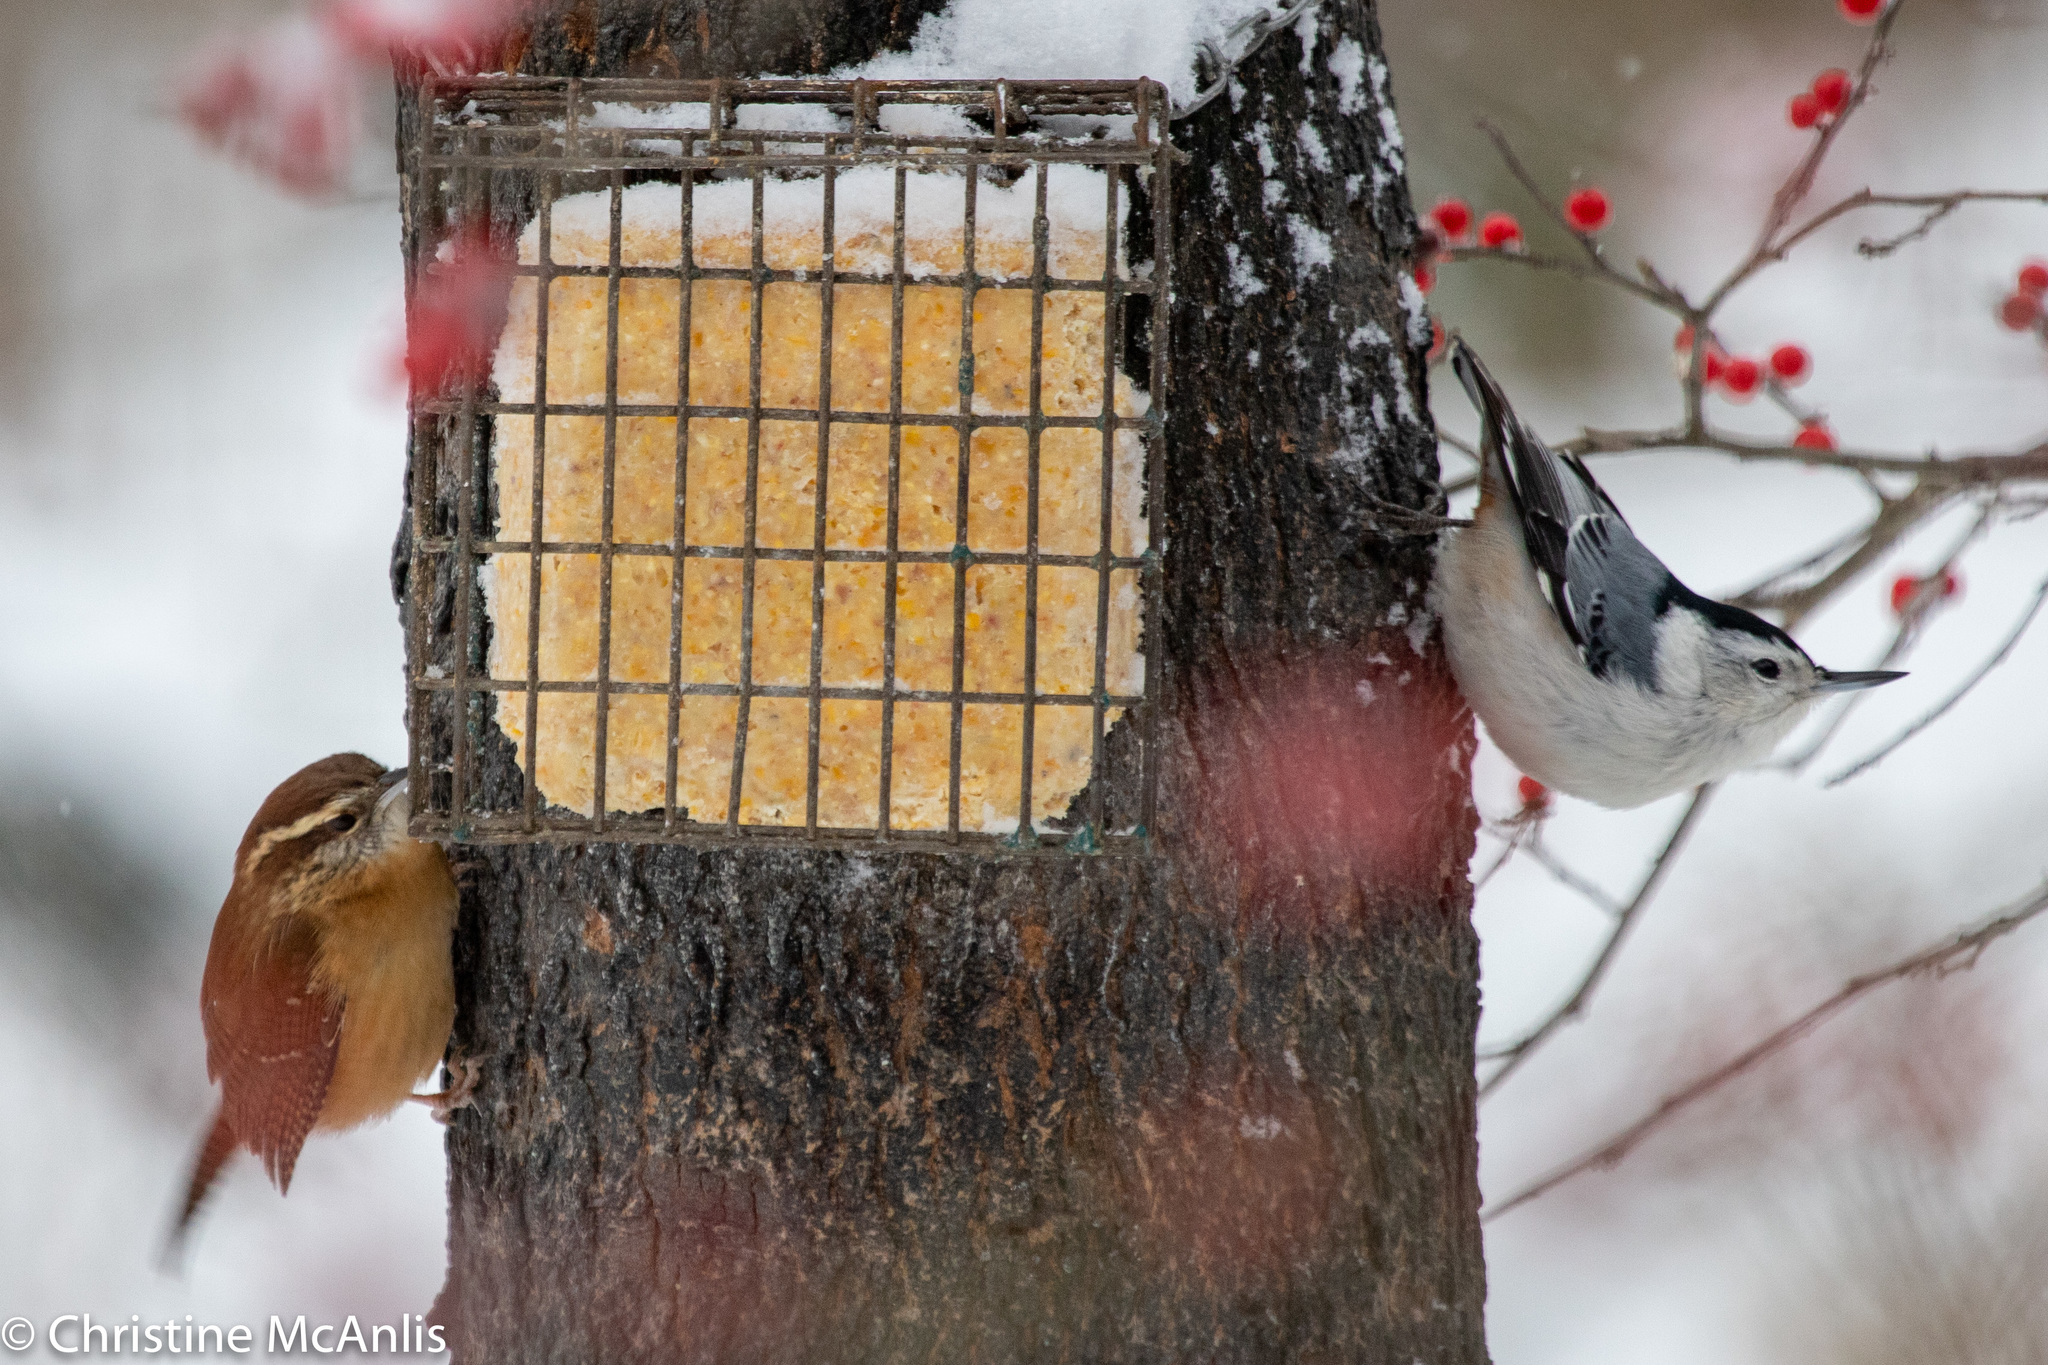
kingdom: Animalia
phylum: Chordata
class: Aves
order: Passeriformes
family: Troglodytidae
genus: Thryothorus
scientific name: Thryothorus ludovicianus
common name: Carolina wren
